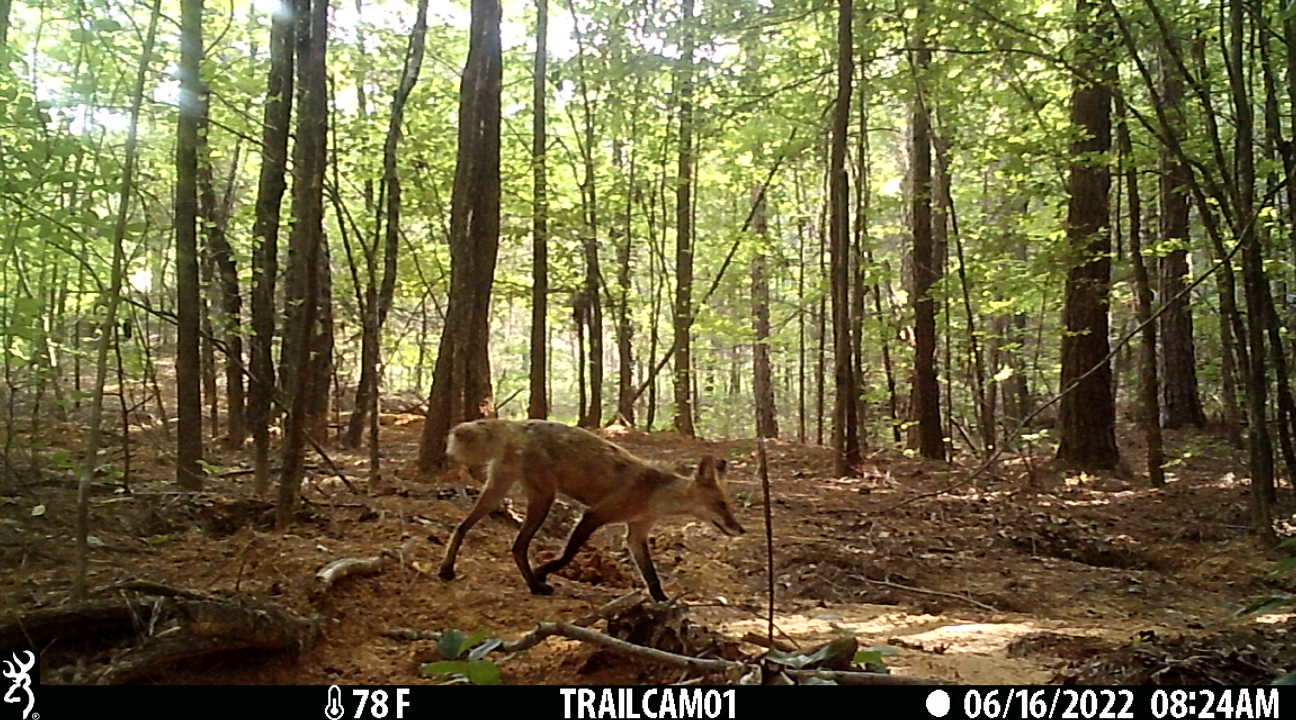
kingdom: Animalia
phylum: Chordata
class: Mammalia
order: Carnivora
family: Canidae
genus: Vulpes
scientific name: Vulpes vulpes
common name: Red fox
